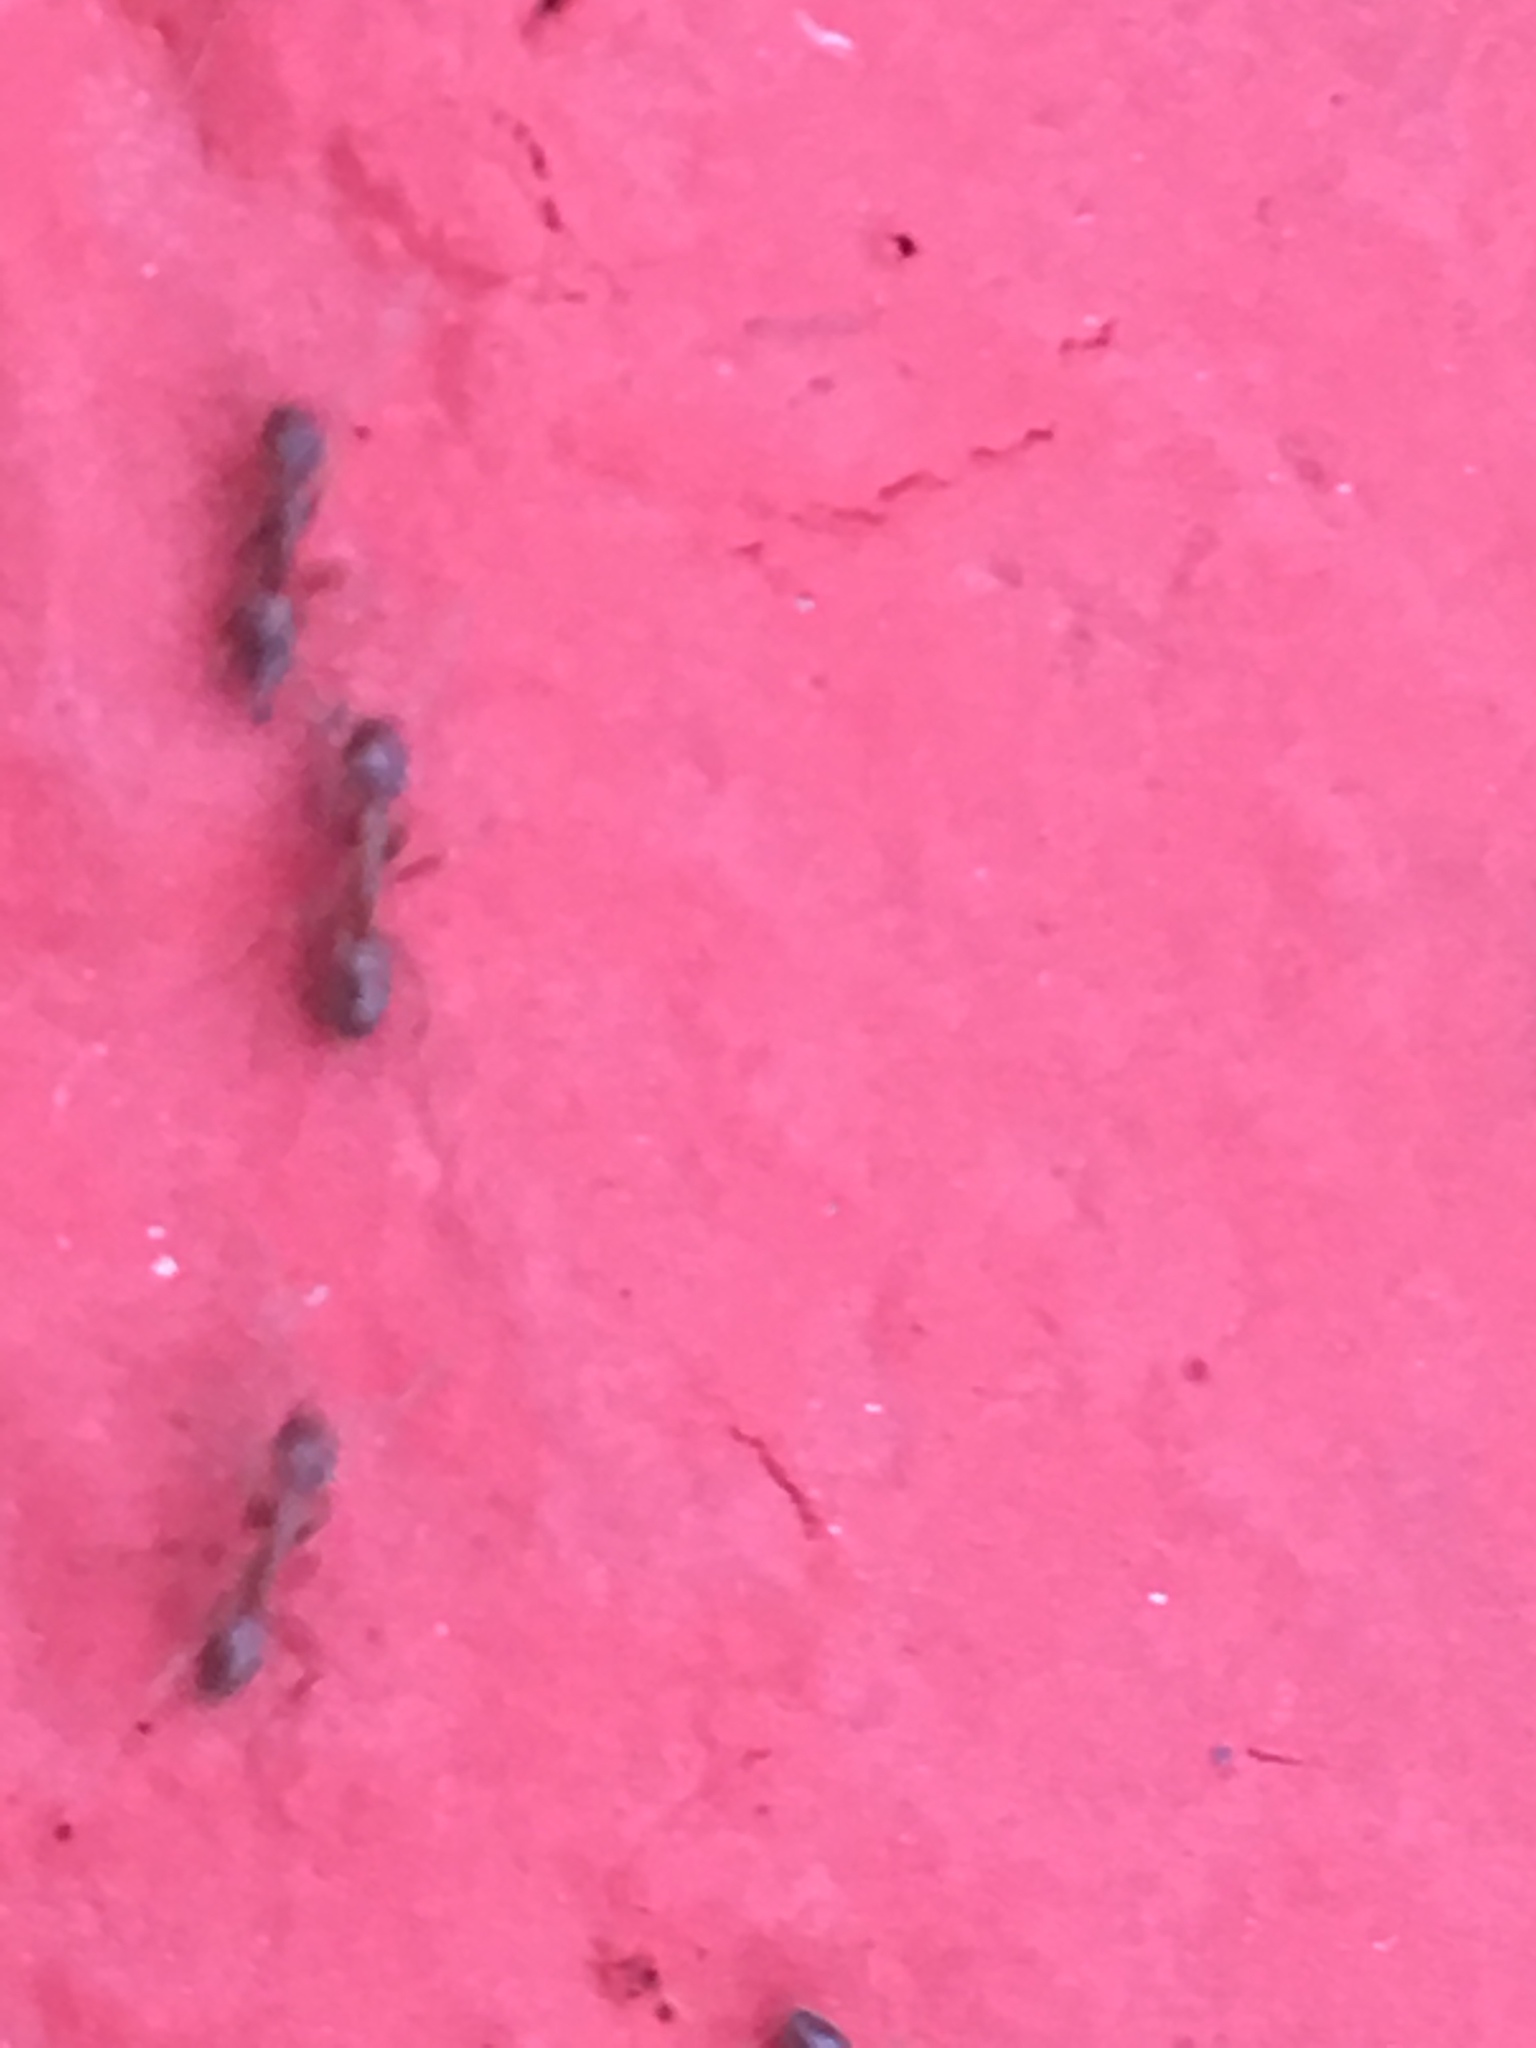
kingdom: Animalia
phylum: Arthropoda
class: Insecta
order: Hymenoptera
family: Formicidae
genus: Linepithema
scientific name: Linepithema humile
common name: Argentine ant
